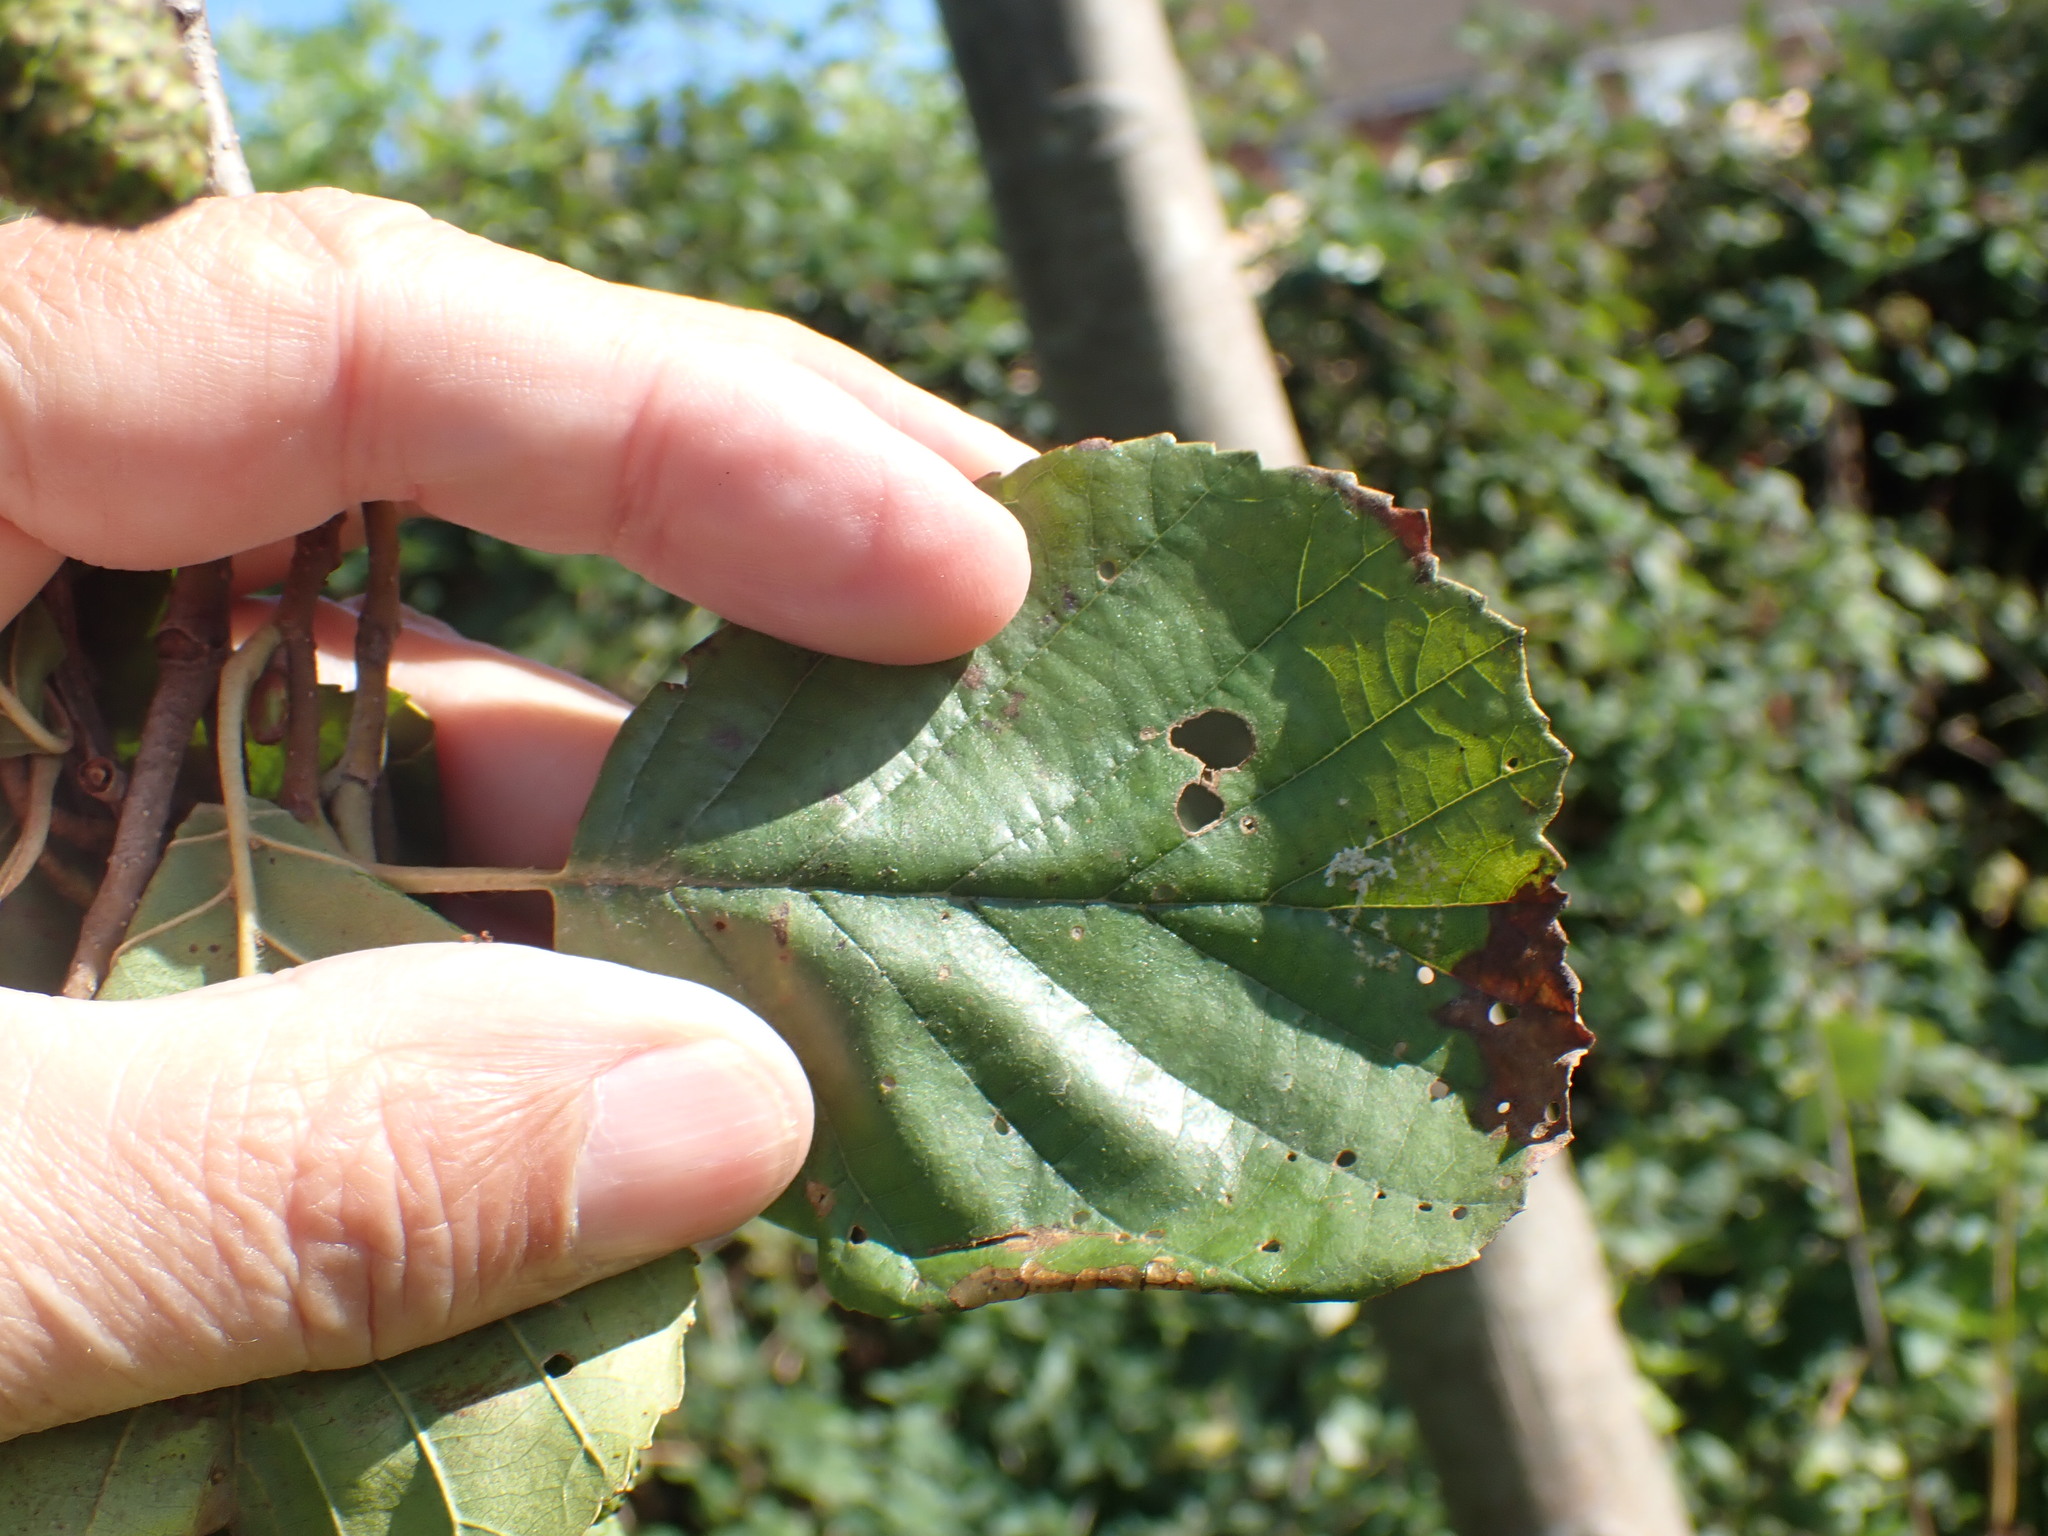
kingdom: Plantae
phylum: Tracheophyta
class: Magnoliopsida
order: Fagales
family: Betulaceae
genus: Alnus
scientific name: Alnus glutinosa
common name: Black alder
